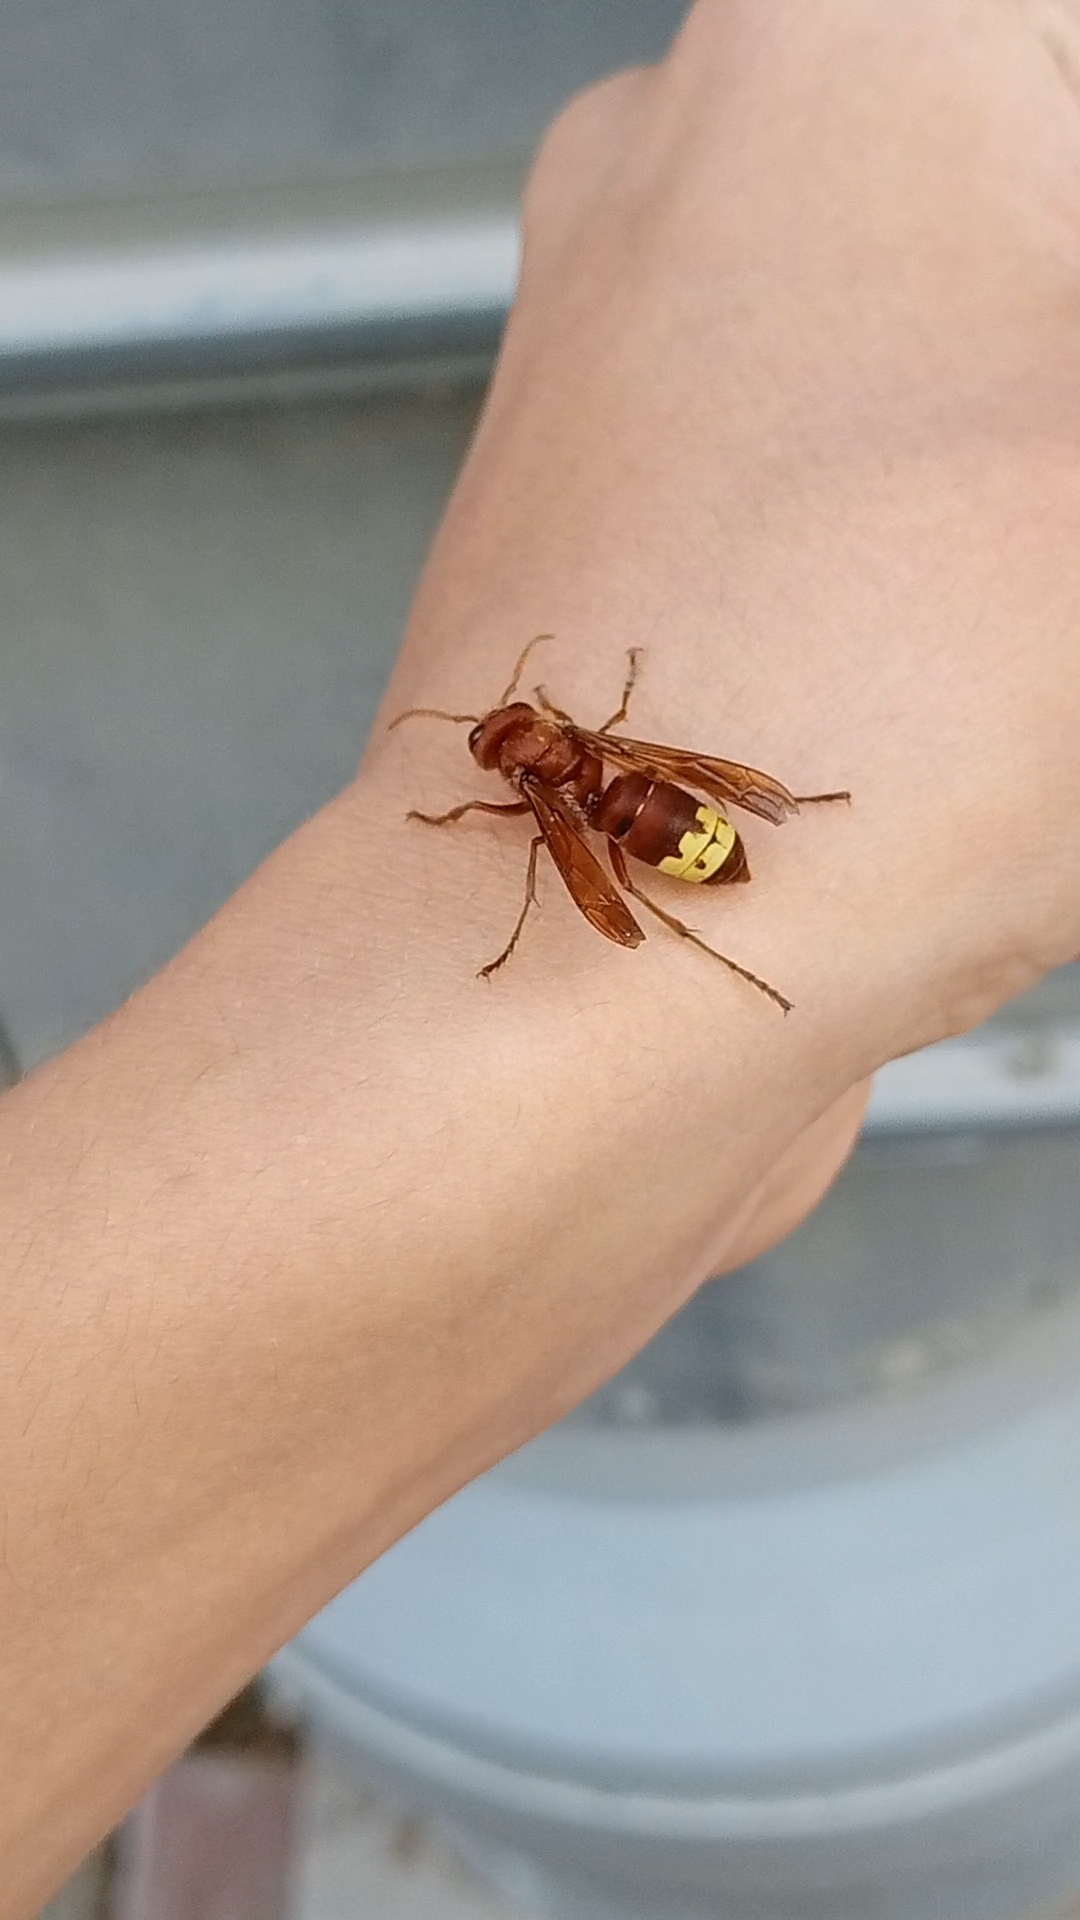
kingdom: Animalia
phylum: Arthropoda
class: Insecta
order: Hymenoptera
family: Vespidae
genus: Vespa
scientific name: Vespa orientalis
